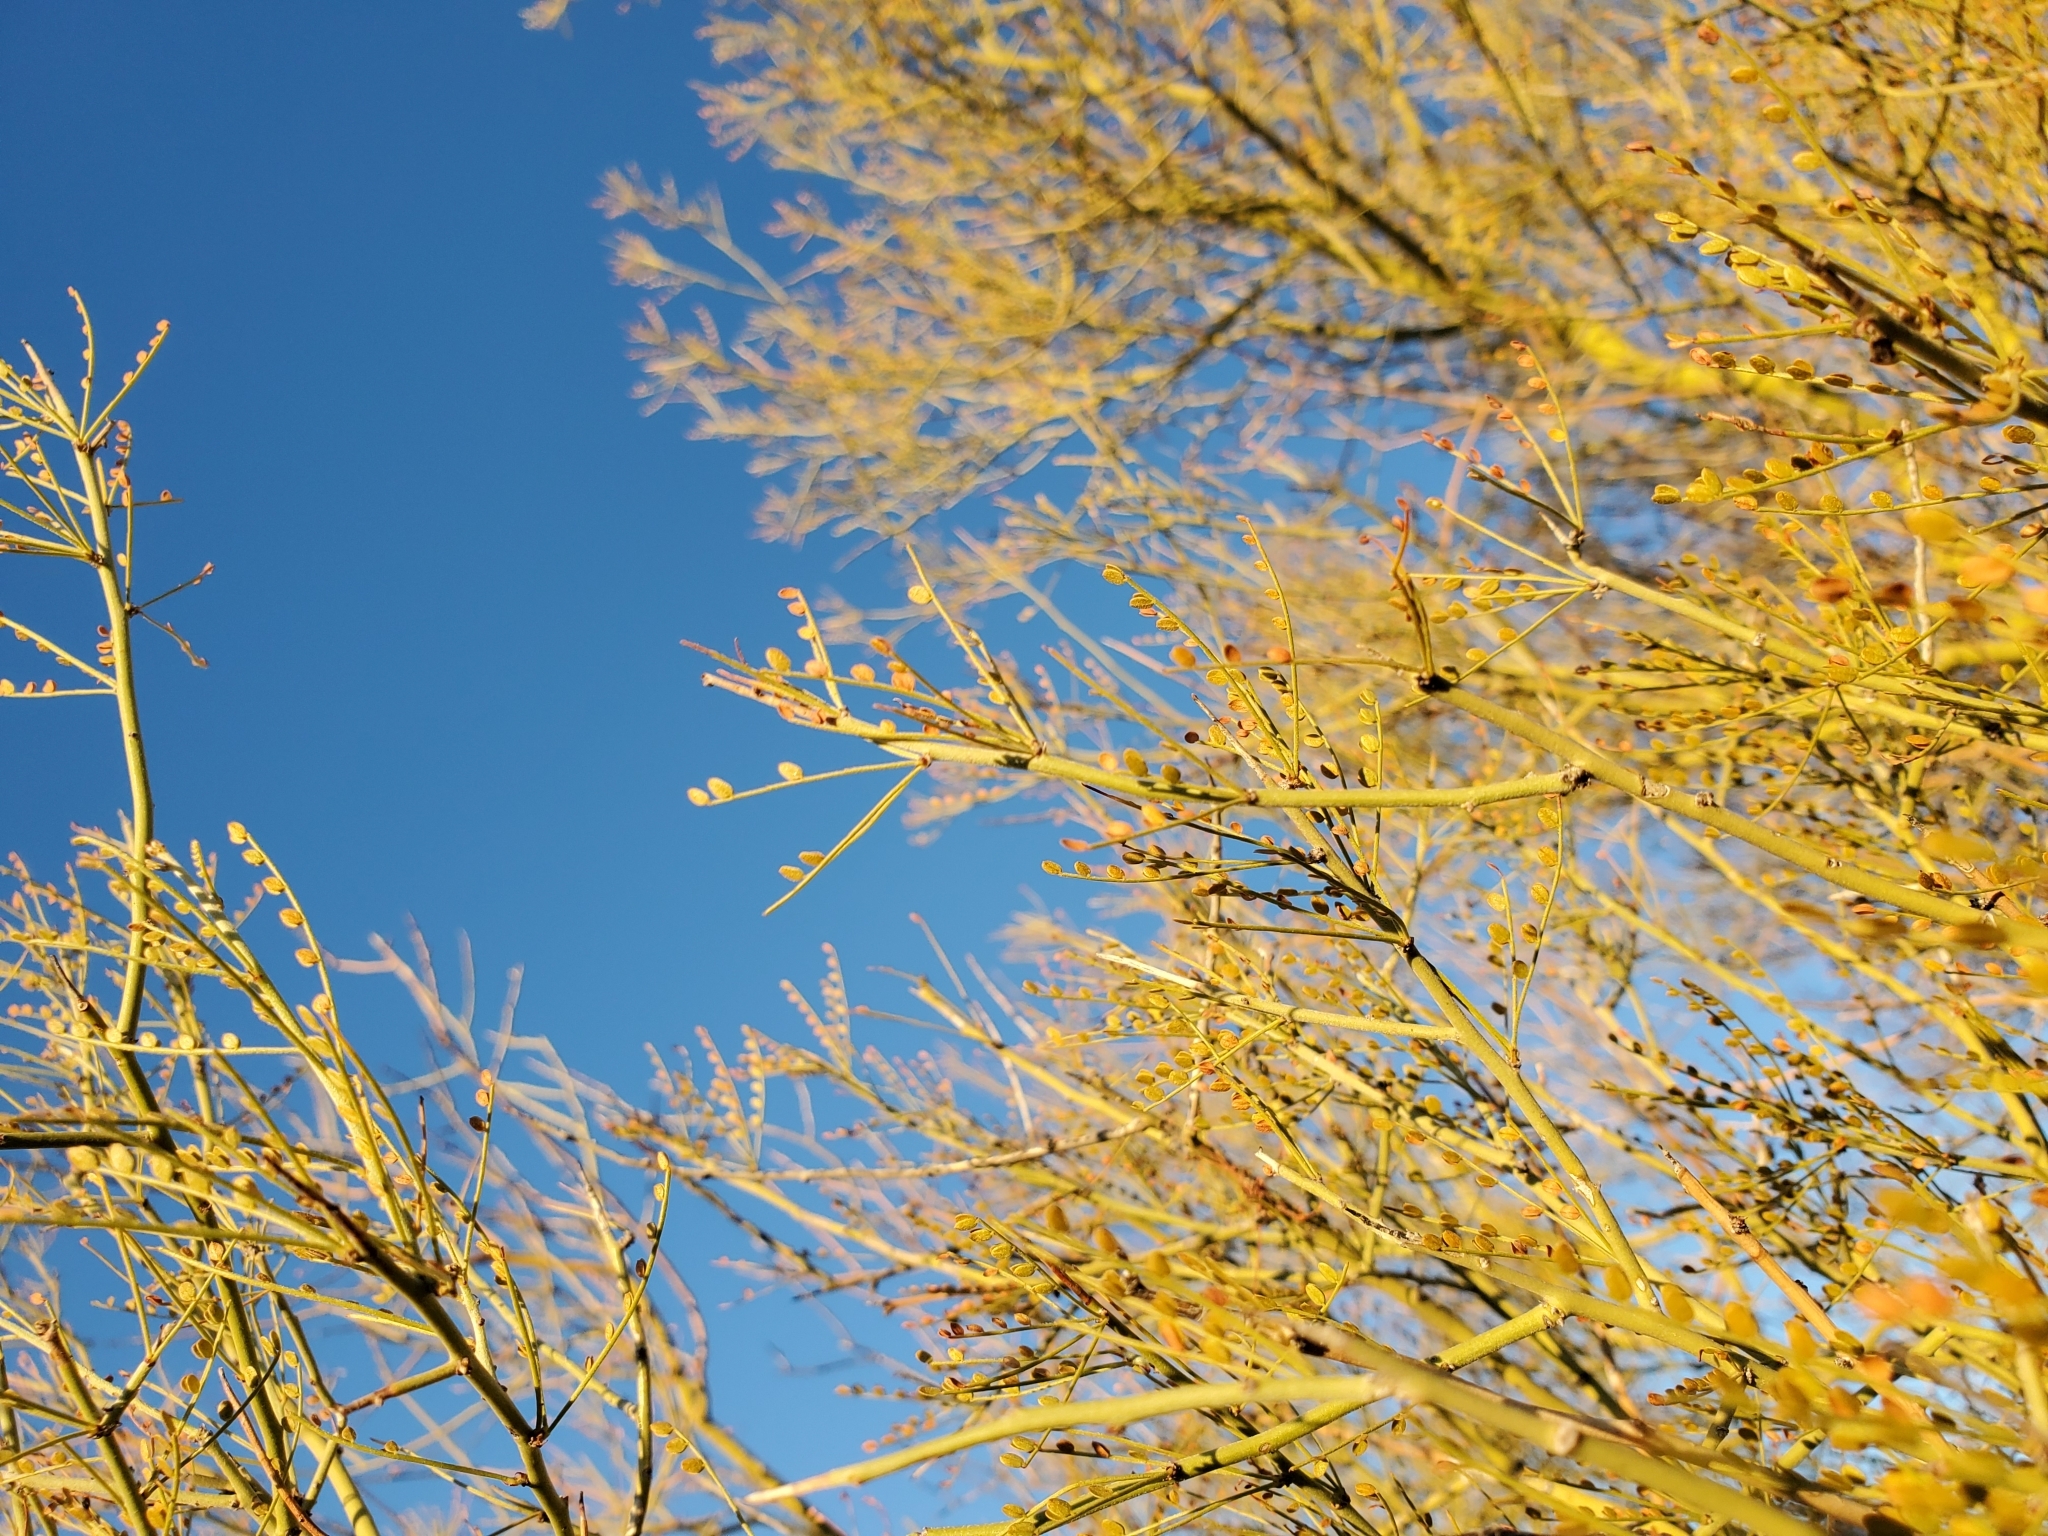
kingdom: Plantae
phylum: Tracheophyta
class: Magnoliopsida
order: Fabales
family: Fabaceae
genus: Parkinsonia
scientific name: Parkinsonia microphylla
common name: Yellow paloverde
